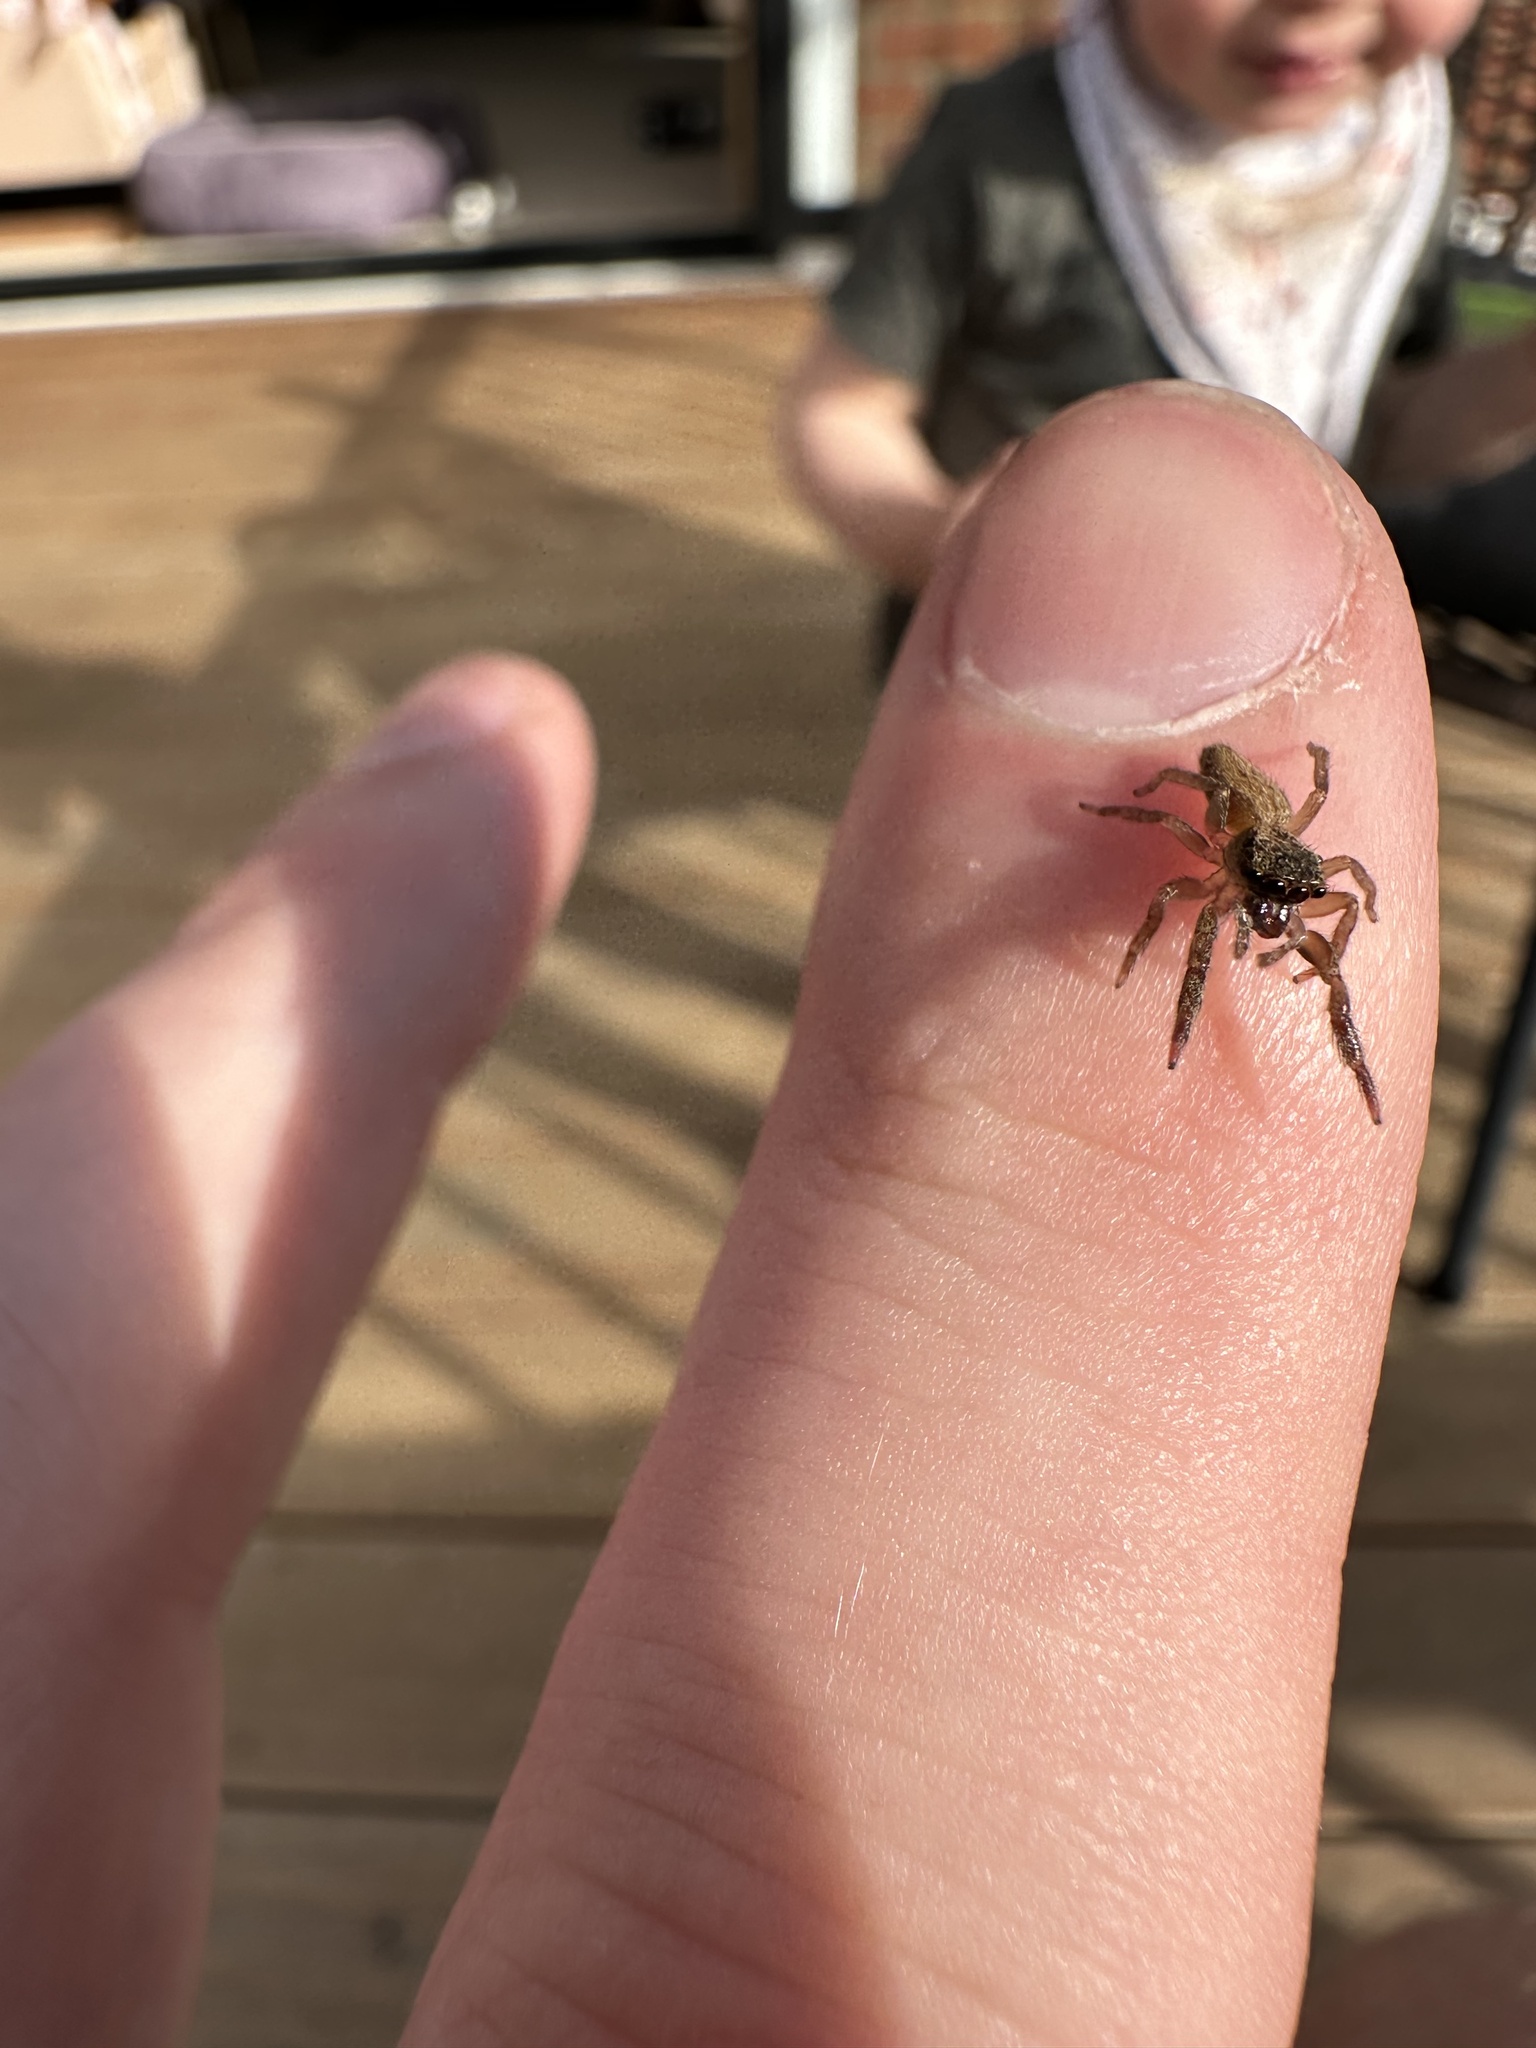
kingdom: Animalia
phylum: Arthropoda
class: Arachnida
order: Araneae
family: Salticidae
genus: Trite
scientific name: Trite auricoma
